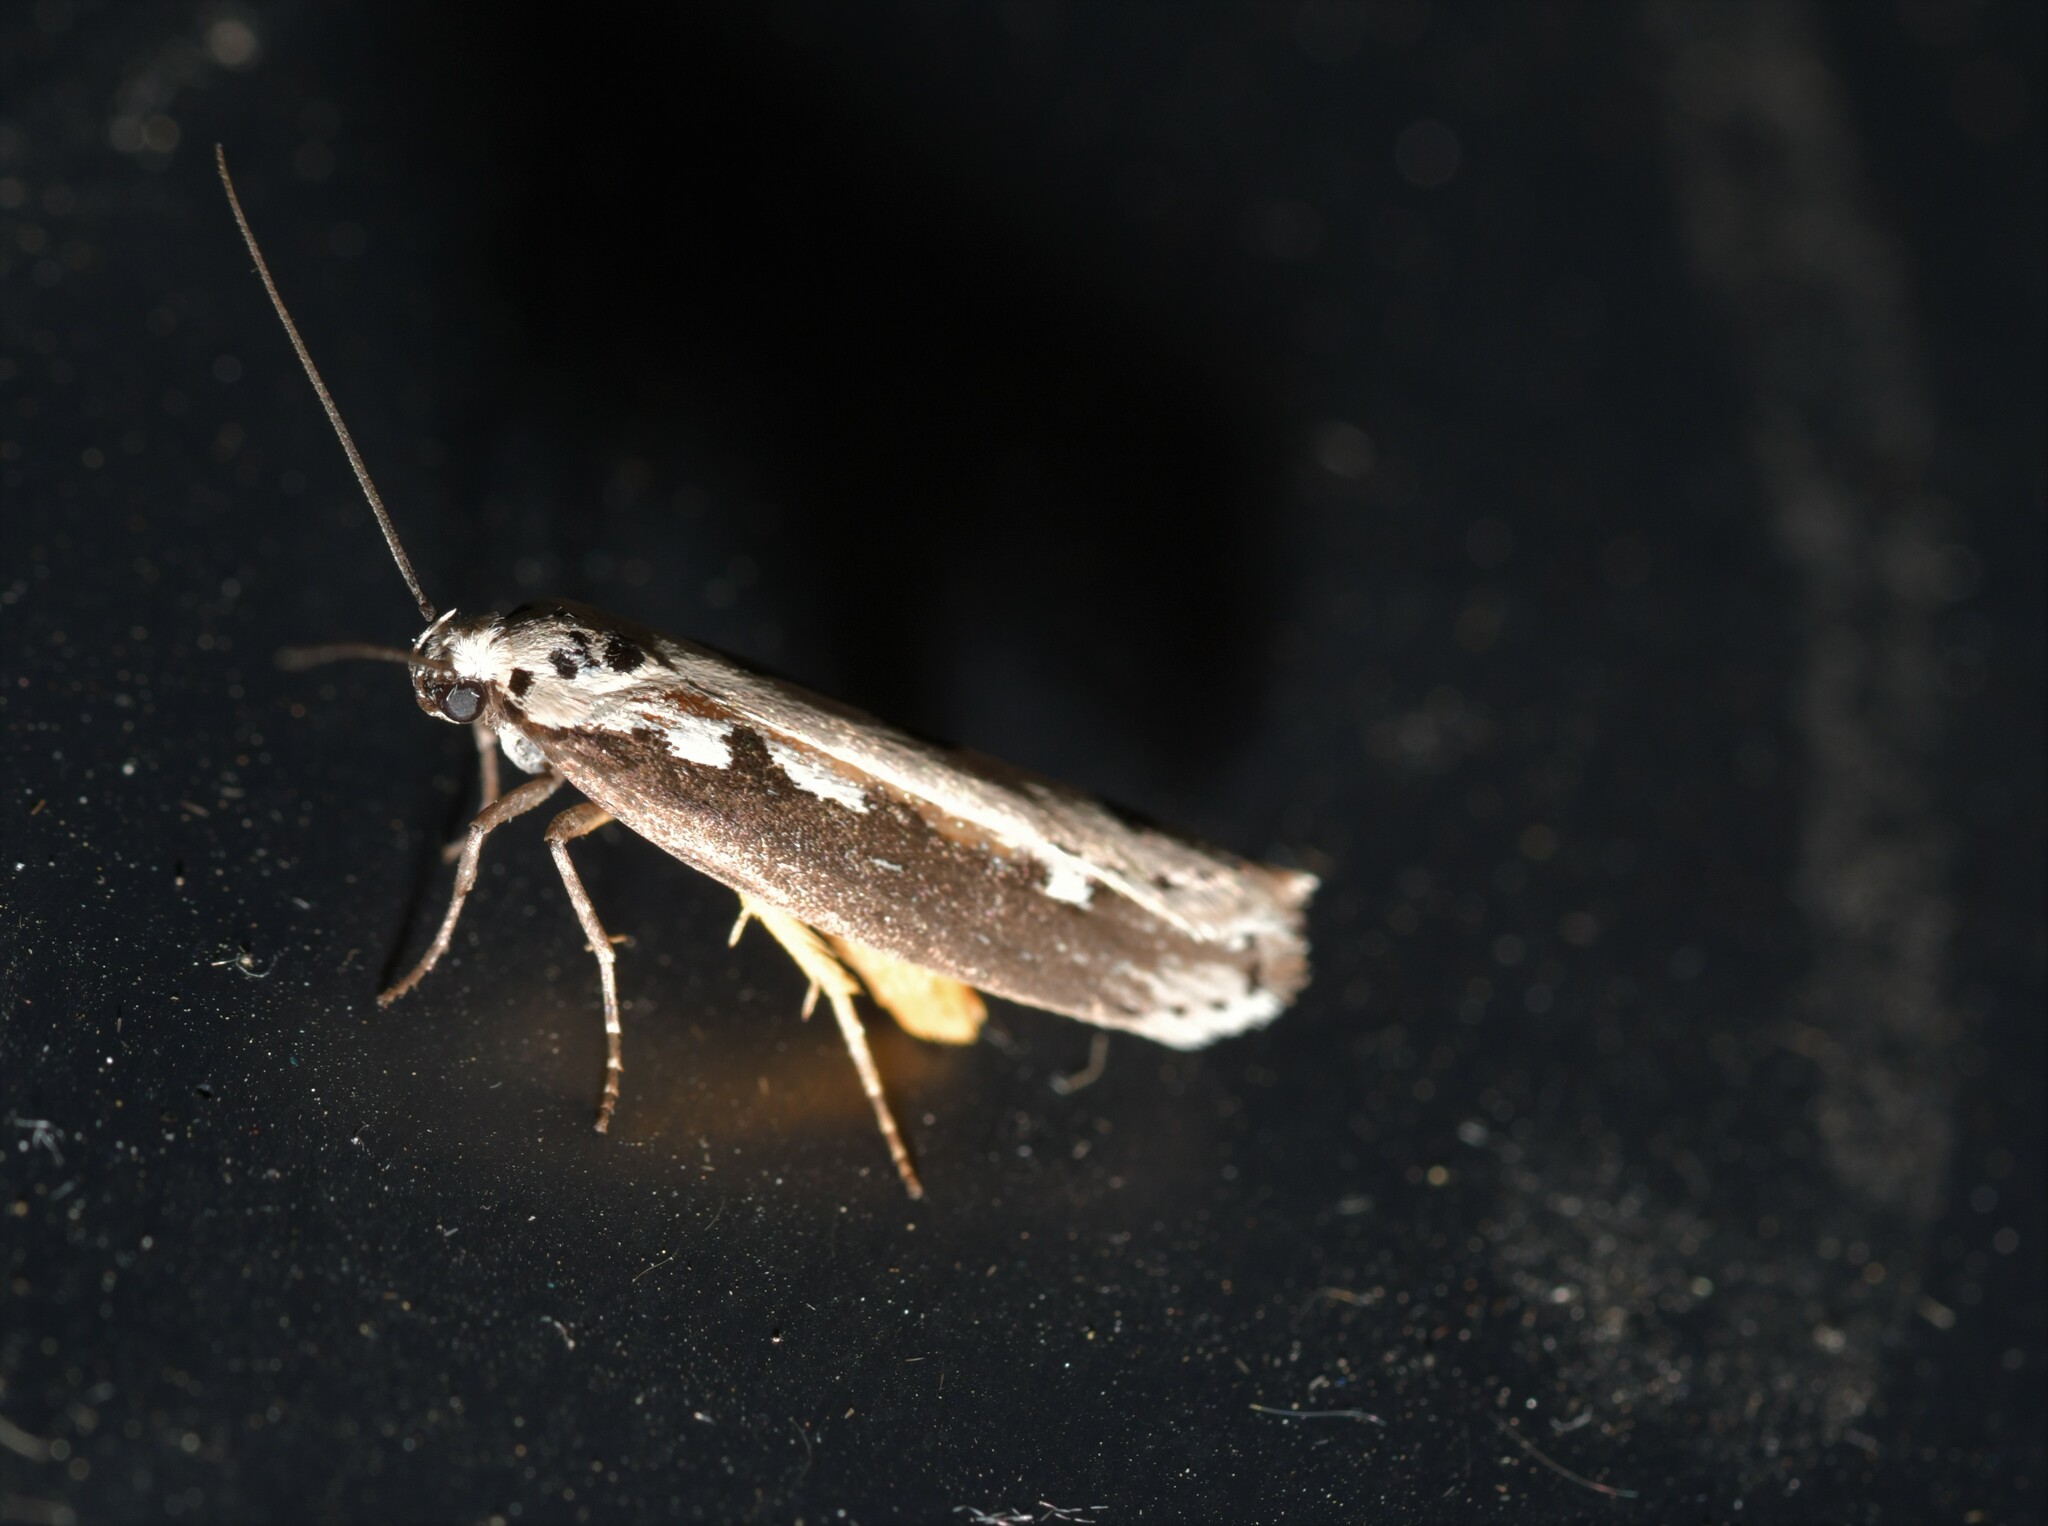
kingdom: Animalia
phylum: Arthropoda
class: Insecta
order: Lepidoptera
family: Ethmiidae
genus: Ethmia
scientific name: Ethmia bipunctella
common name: Bordered ermel
